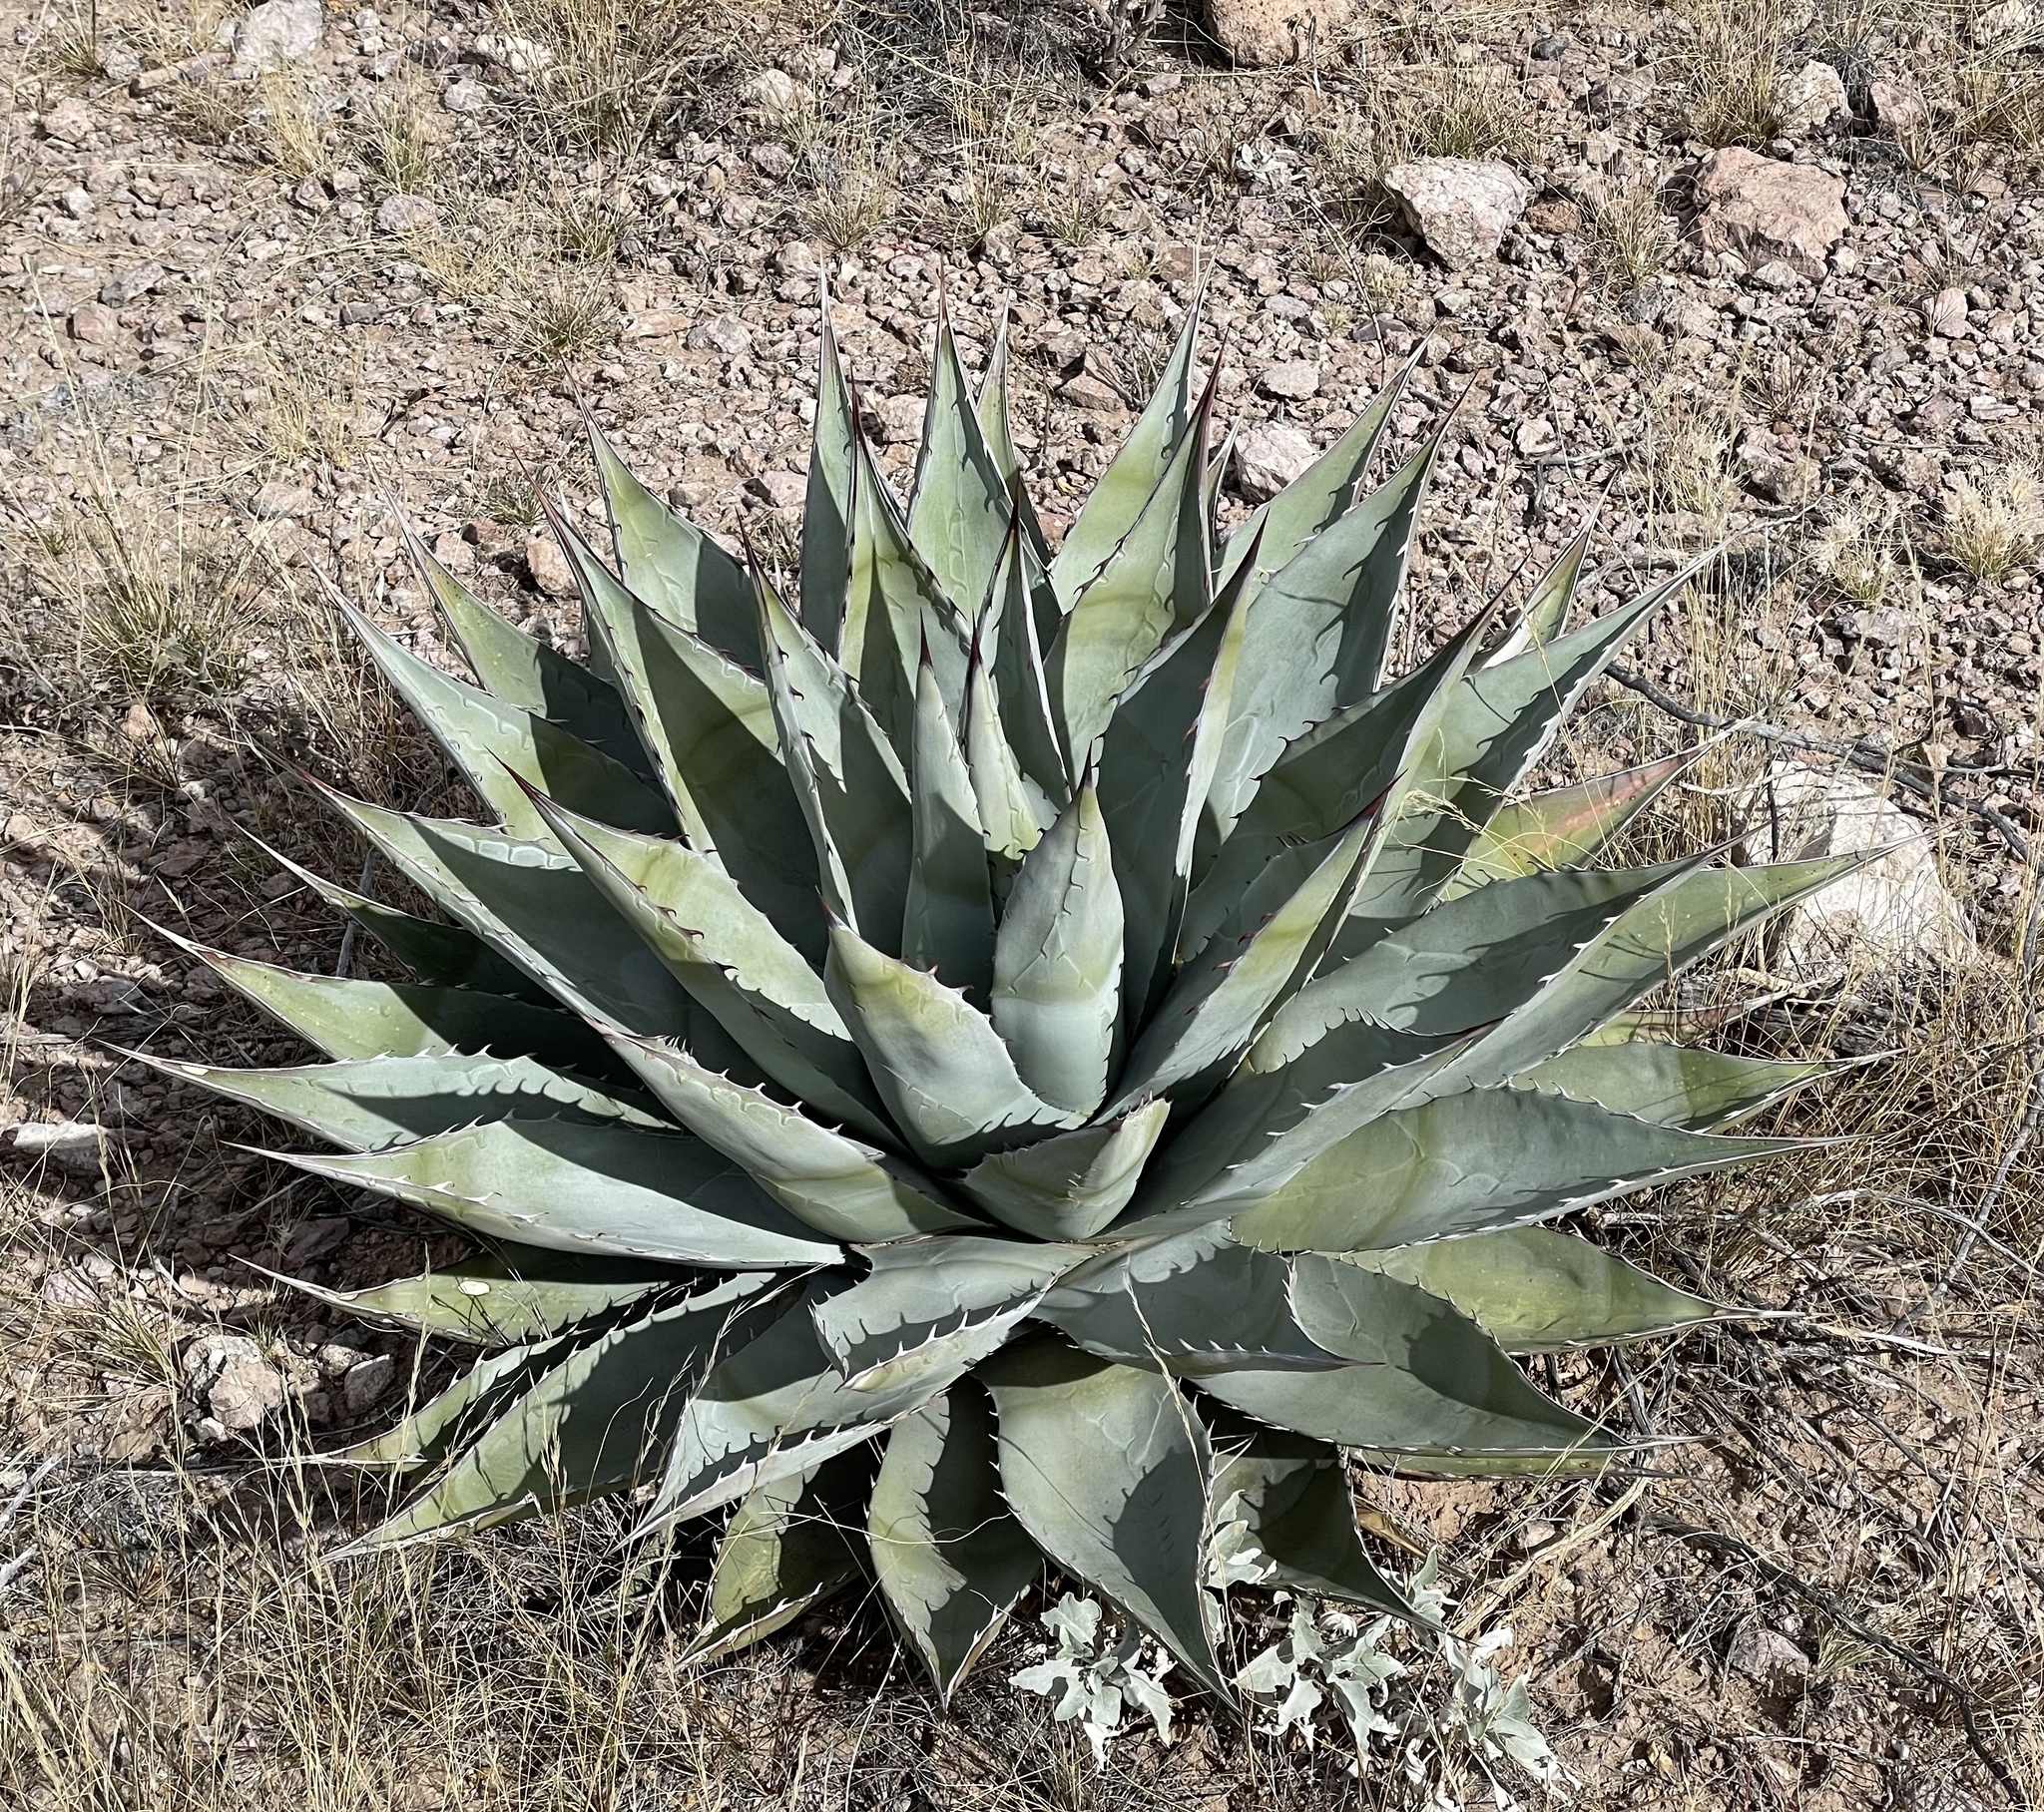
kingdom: Plantae
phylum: Tracheophyta
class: Liliopsida
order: Asparagales
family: Asparagaceae
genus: Agave
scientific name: Agave simplex
